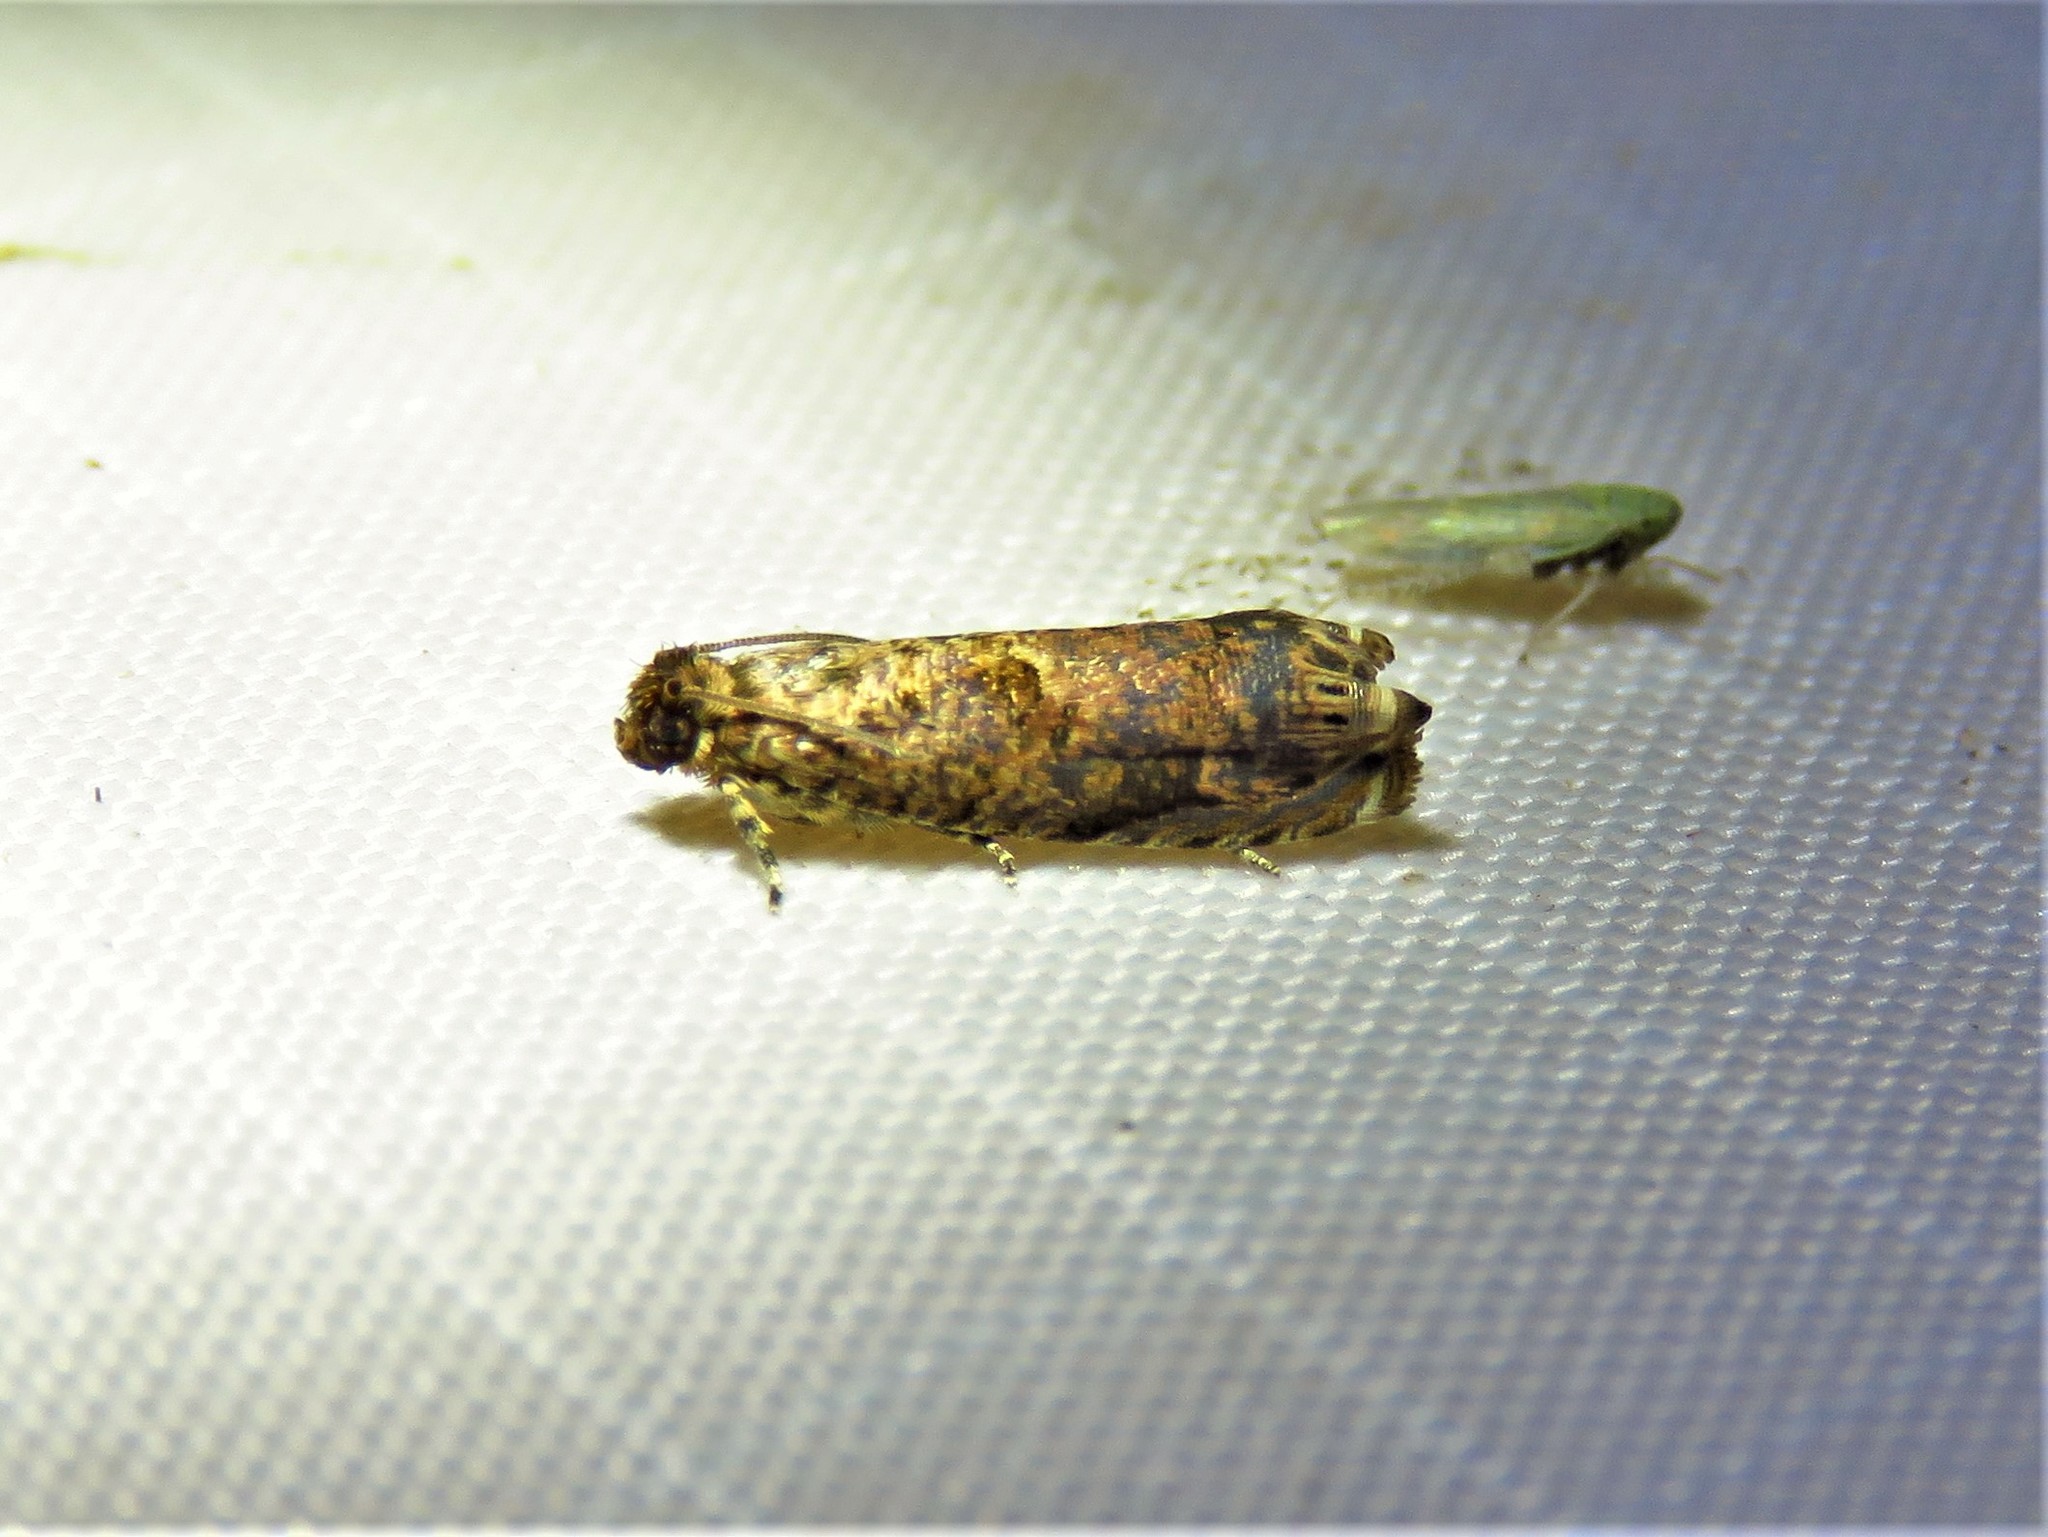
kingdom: Animalia
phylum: Arthropoda
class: Insecta
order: Lepidoptera
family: Tortricidae
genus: Episimus
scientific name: Episimus argutana
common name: Sumac leaftier moth
